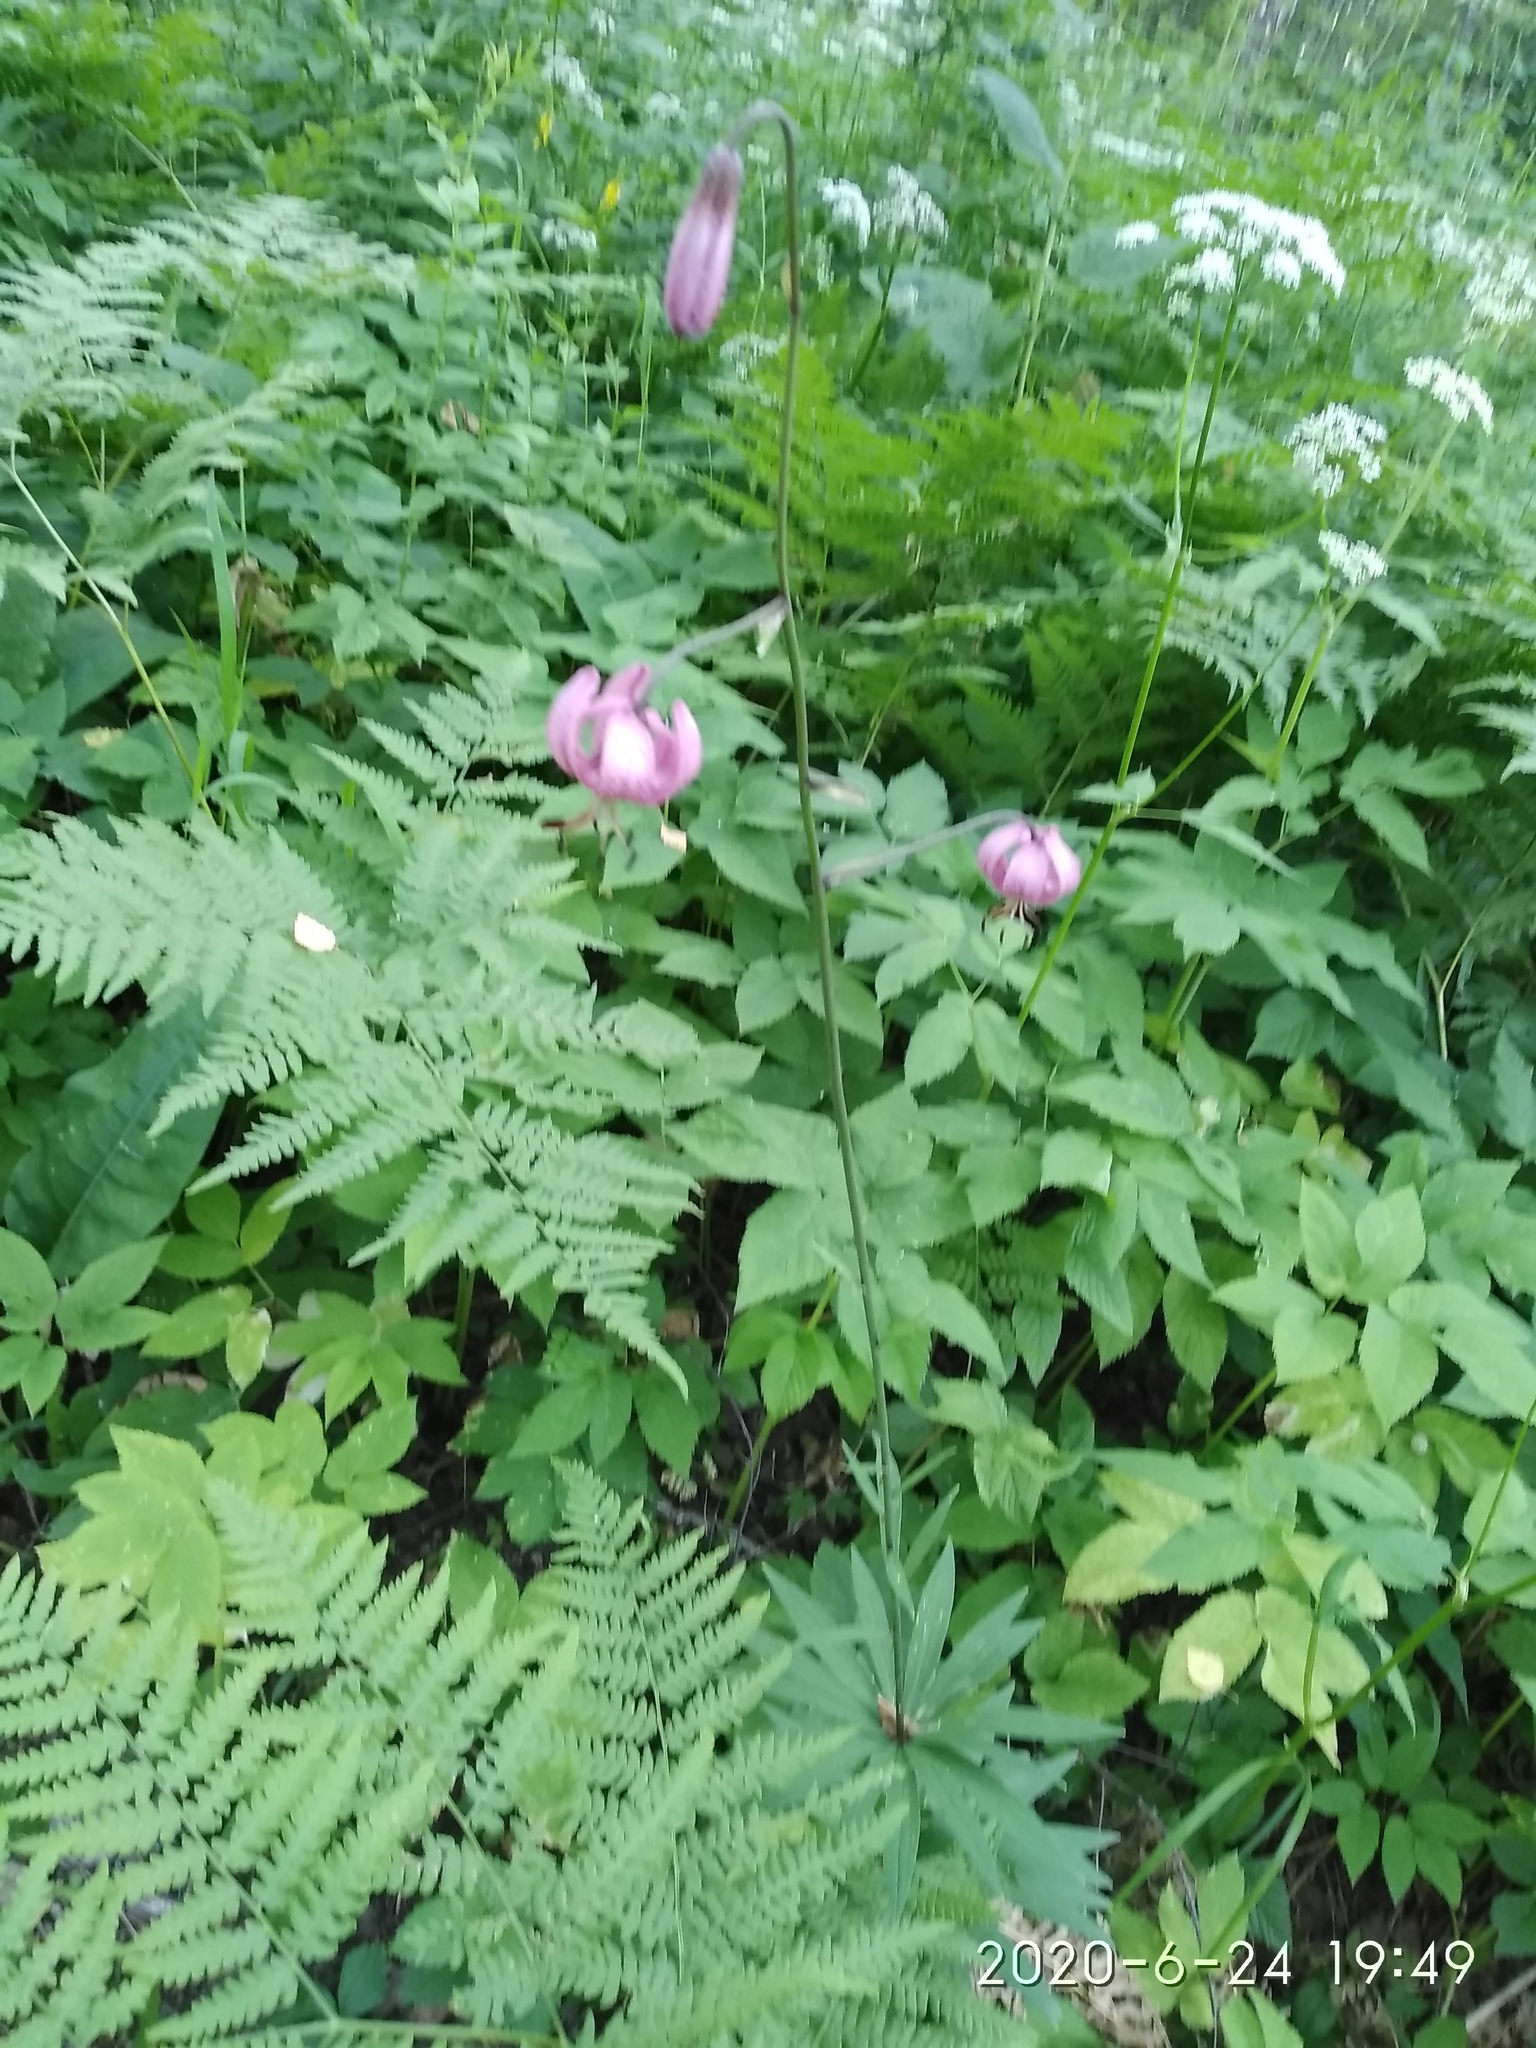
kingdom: Plantae
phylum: Tracheophyta
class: Liliopsida
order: Liliales
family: Liliaceae
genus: Lilium
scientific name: Lilium martagon
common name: Martagon lily
